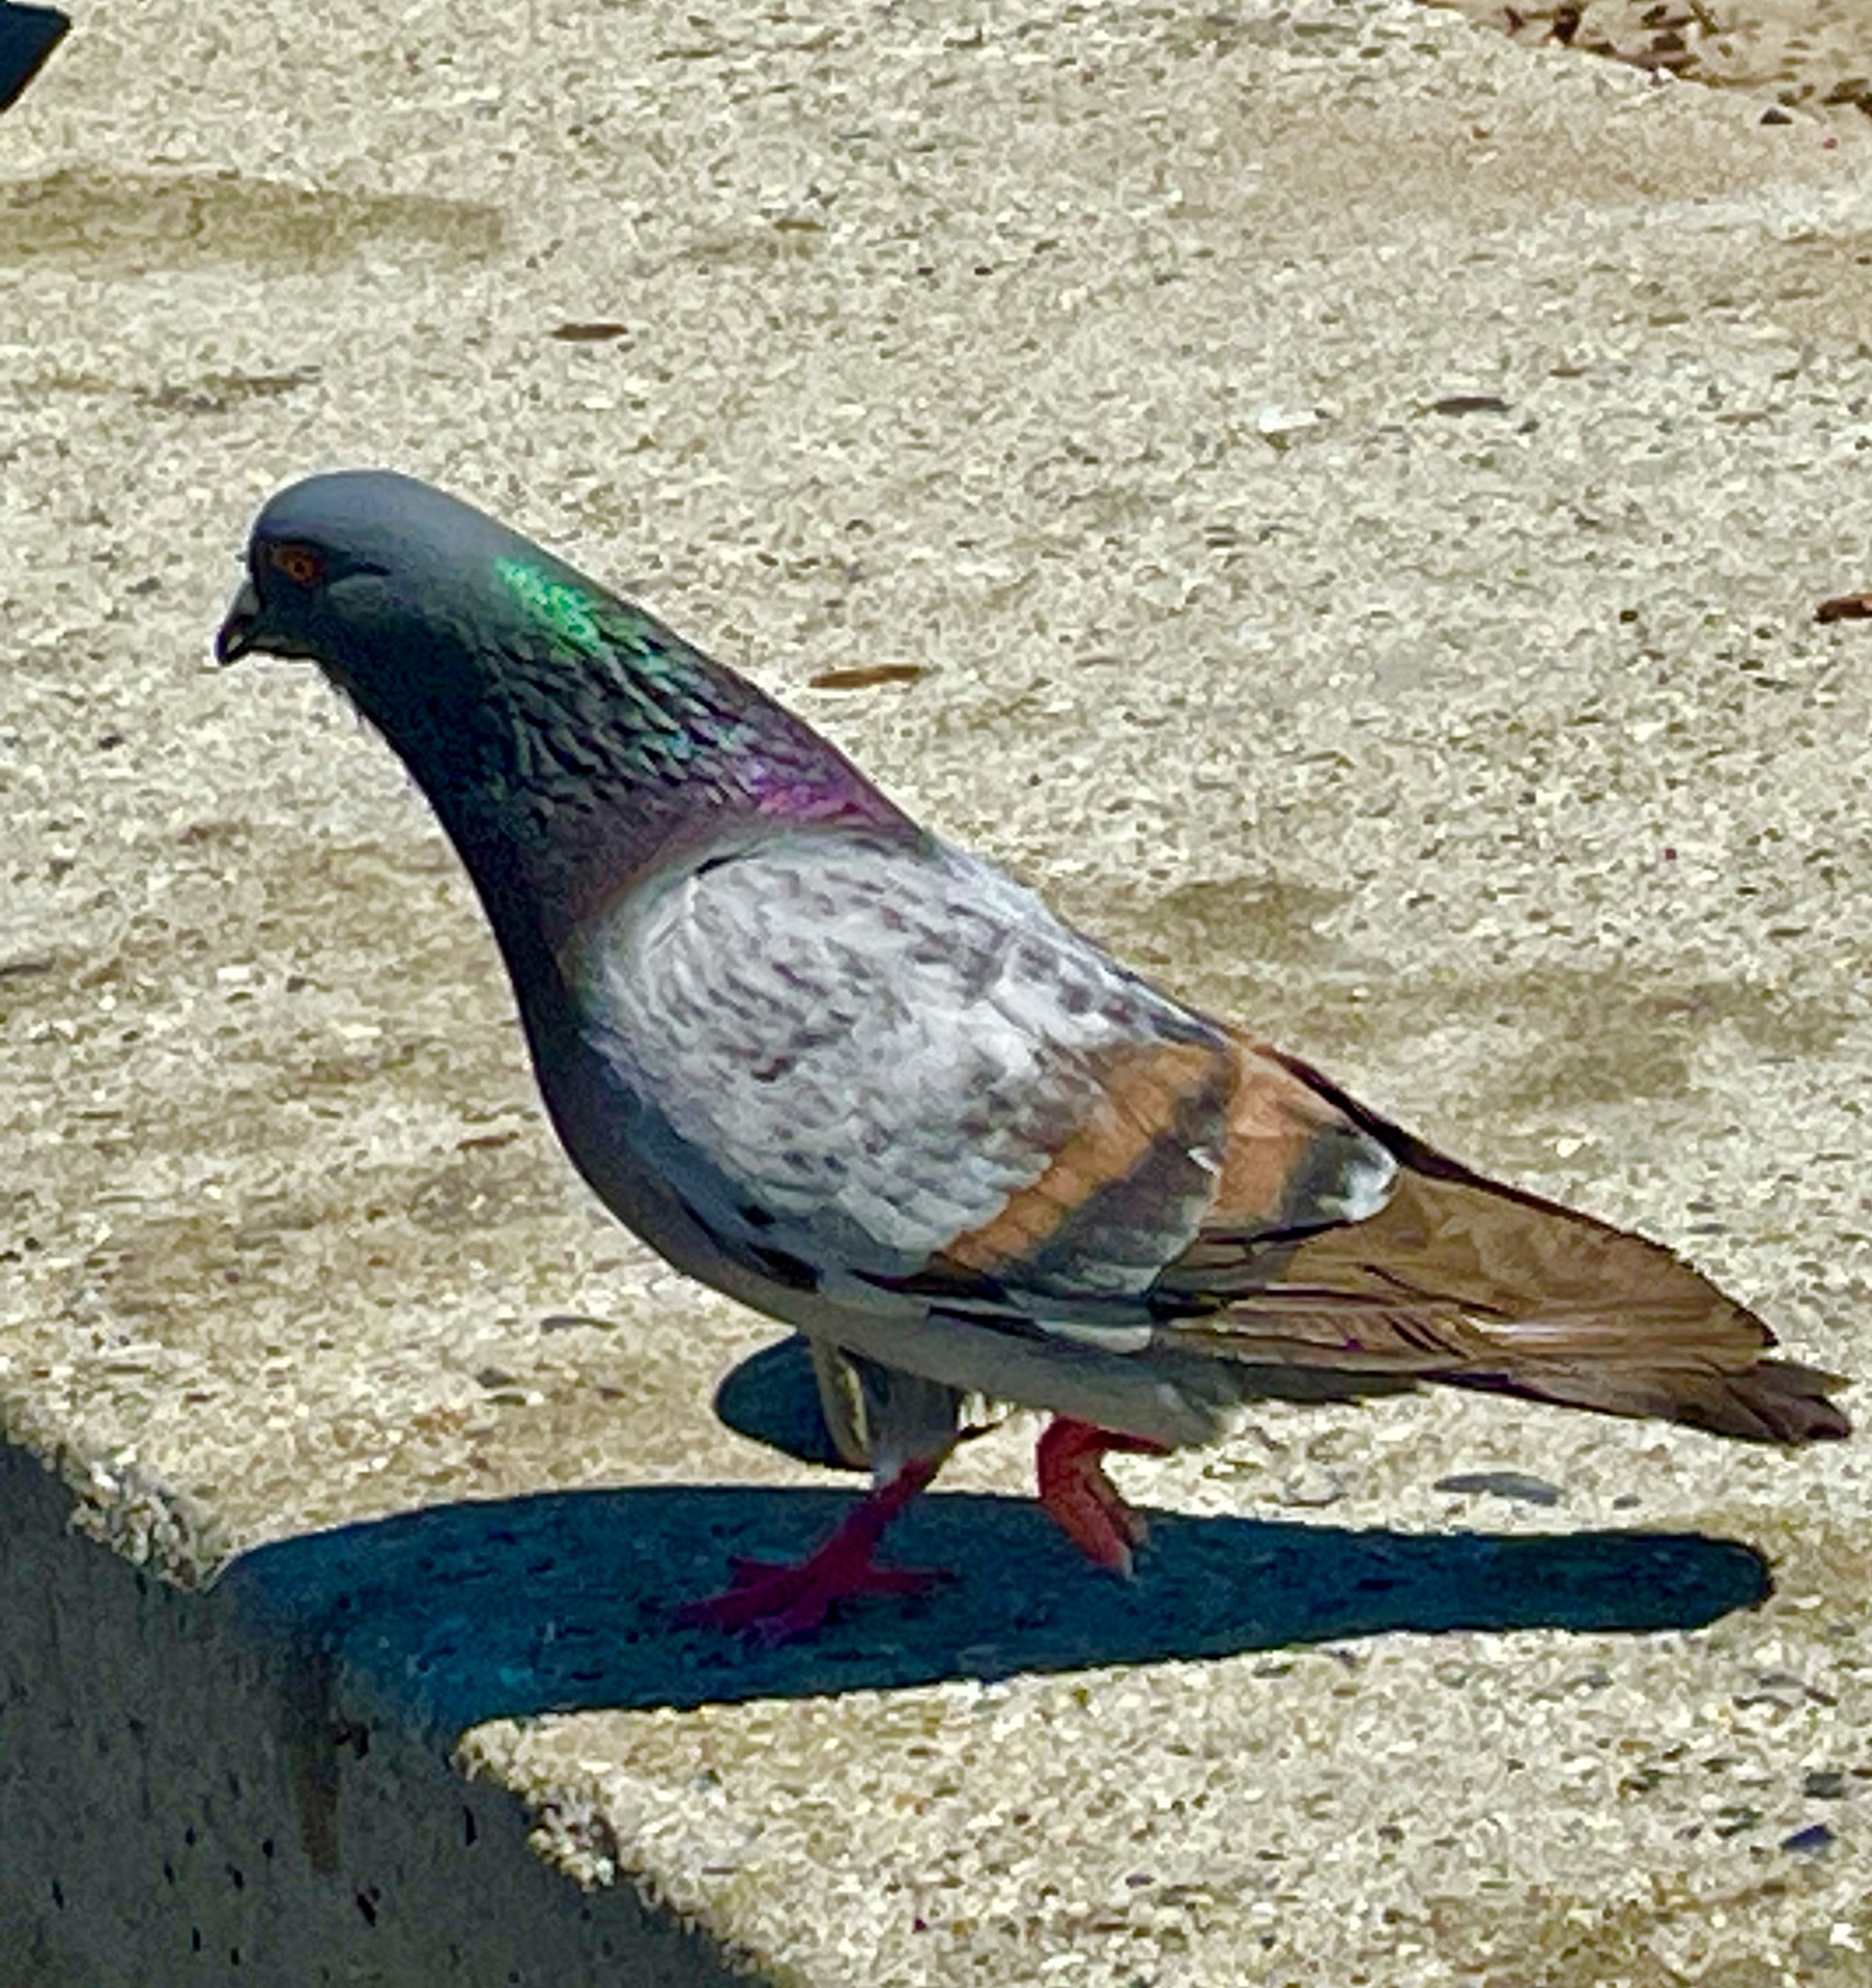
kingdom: Animalia
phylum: Chordata
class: Aves
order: Columbiformes
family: Columbidae
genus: Columba
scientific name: Columba livia
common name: Rock pigeon
